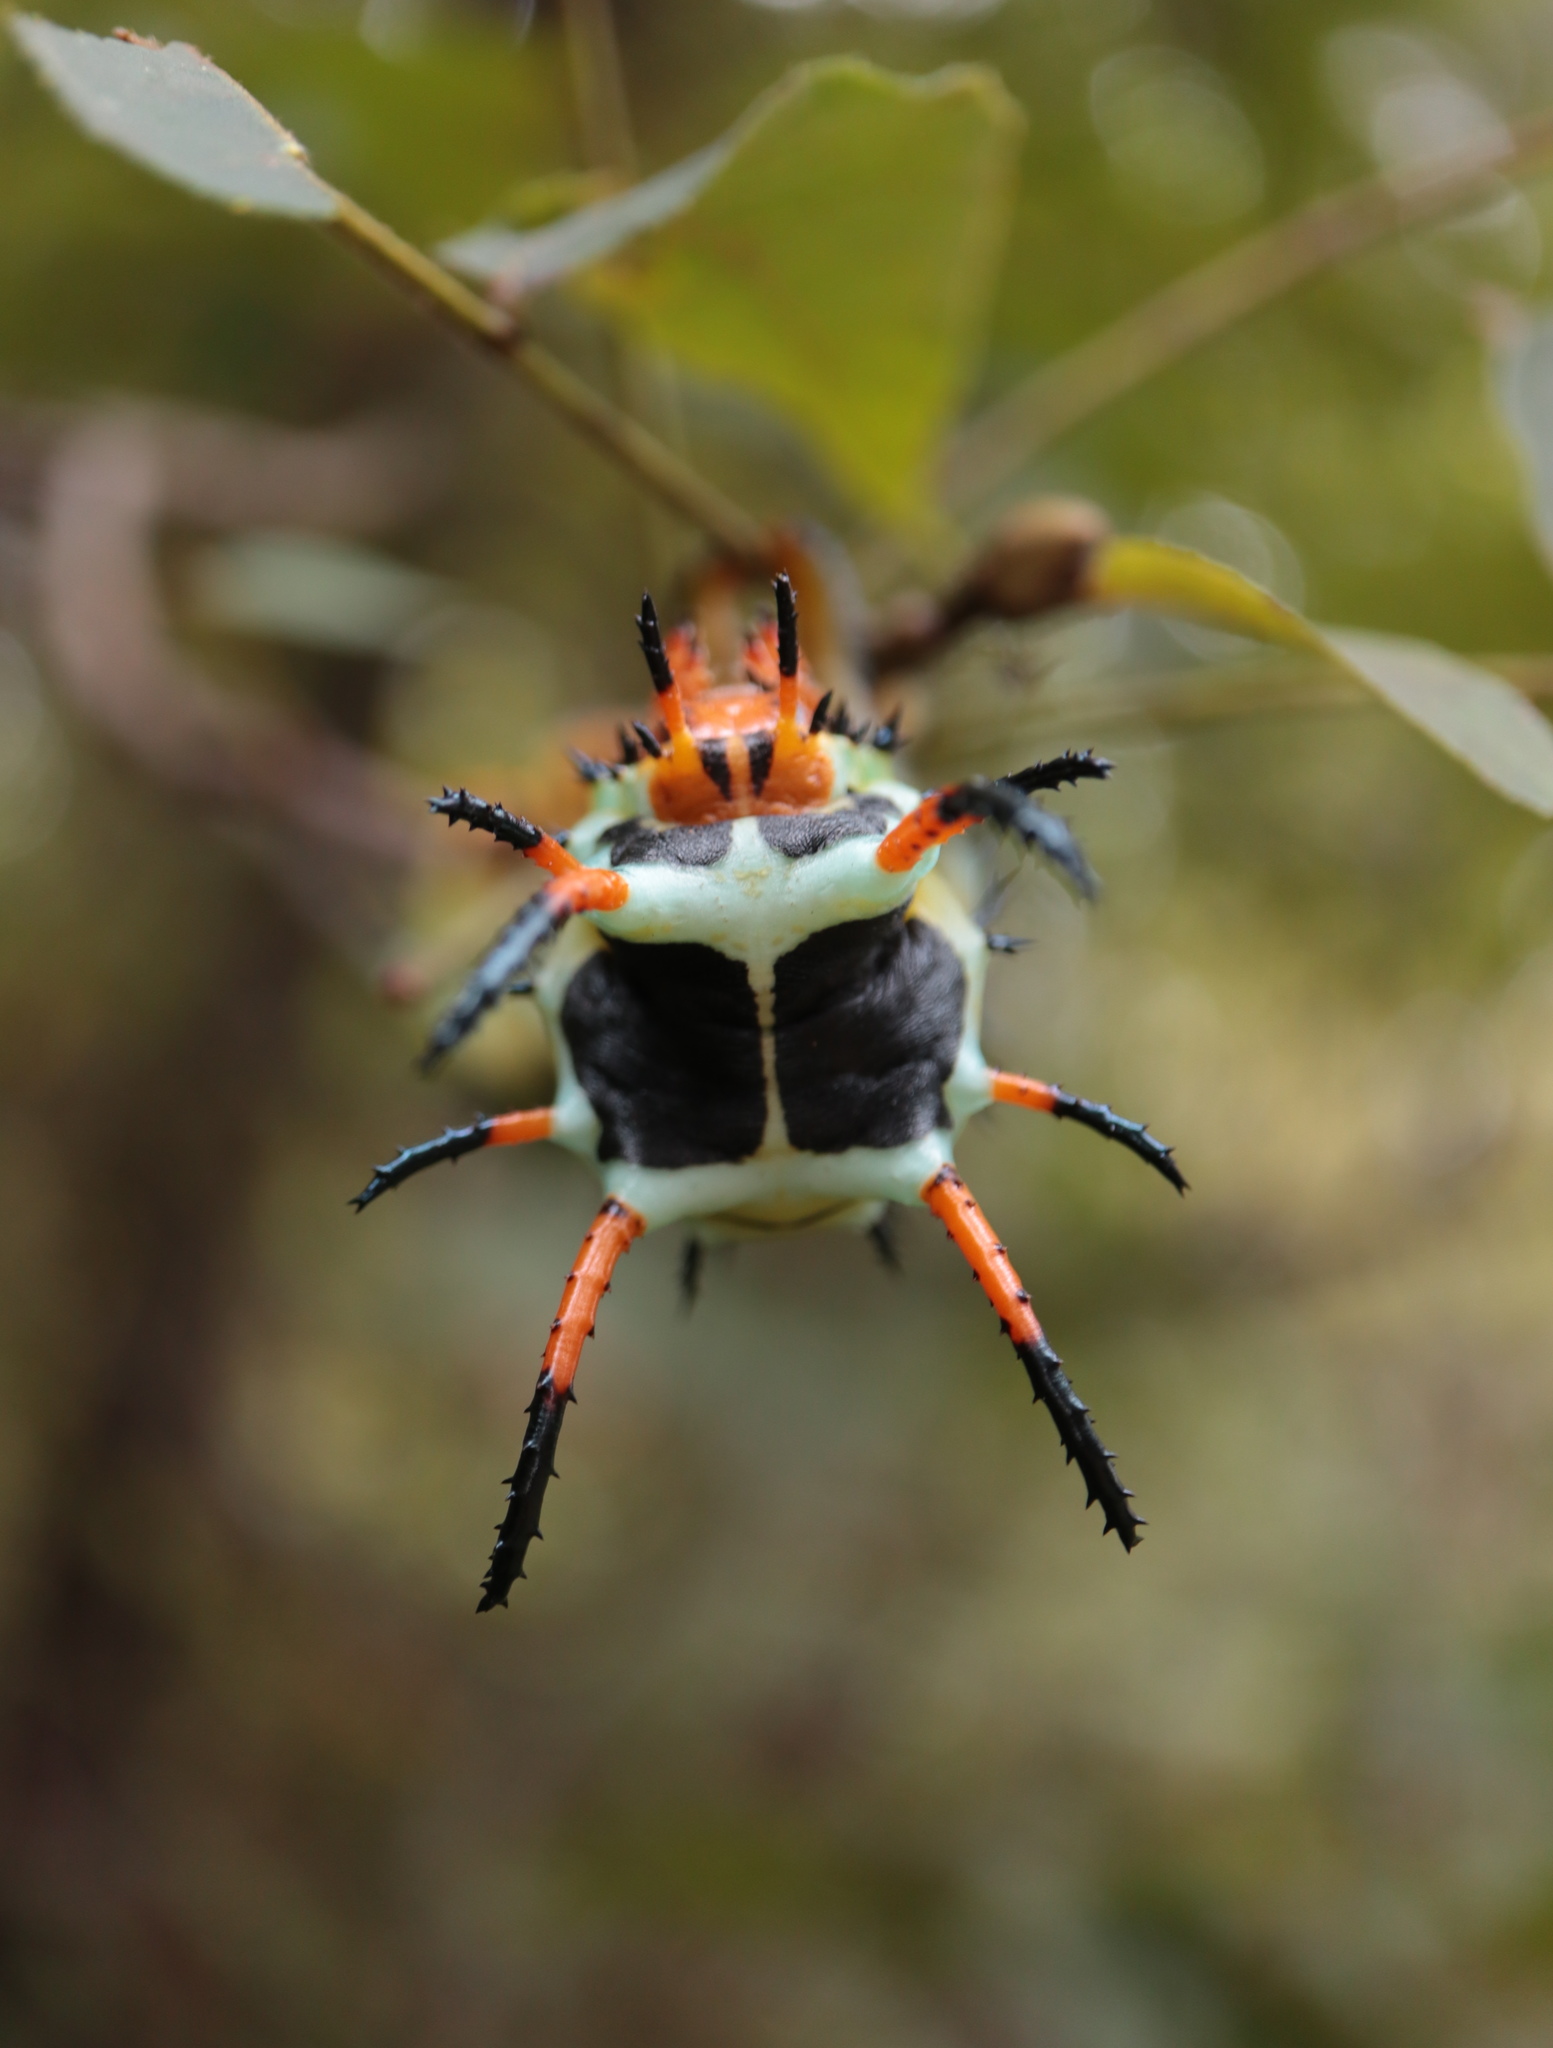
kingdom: Animalia
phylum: Arthropoda
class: Insecta
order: Lepidoptera
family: Saturniidae
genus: Citheronia
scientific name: Citheronia regalis
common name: Hickory horned devil
